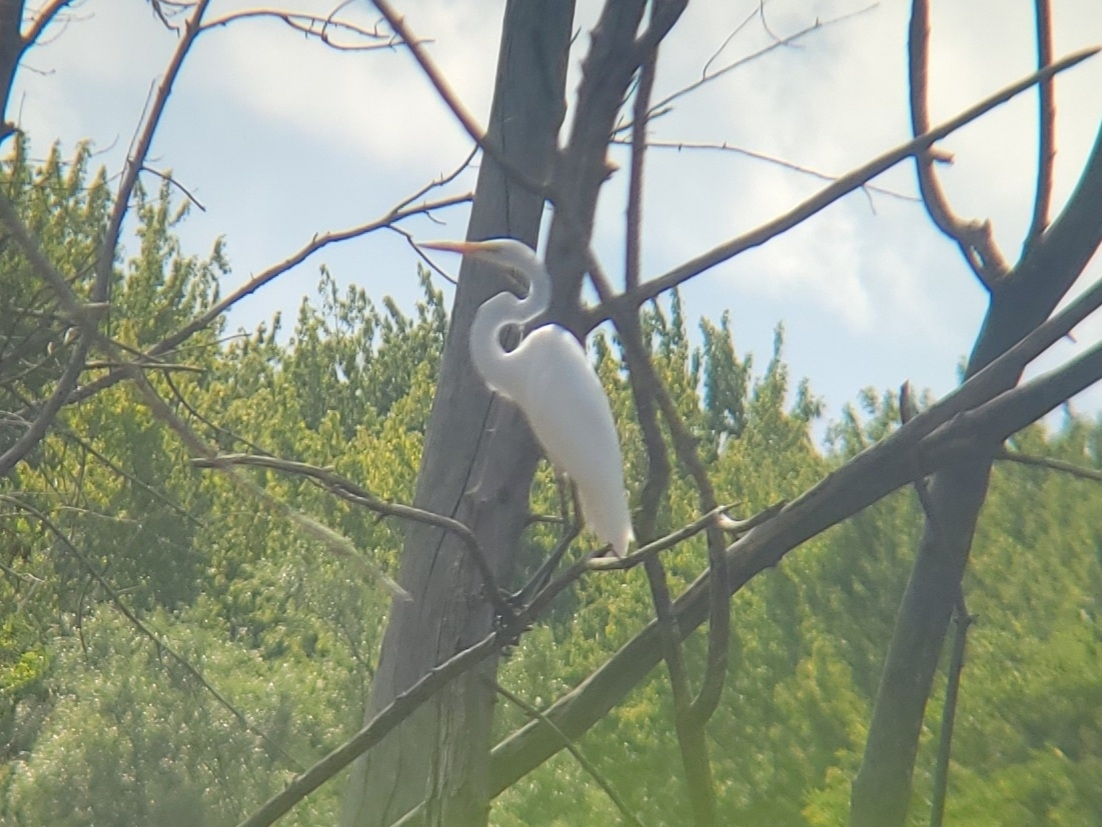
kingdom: Animalia
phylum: Chordata
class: Aves
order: Pelecaniformes
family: Ardeidae
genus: Ardea
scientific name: Ardea alba
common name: Great egret
